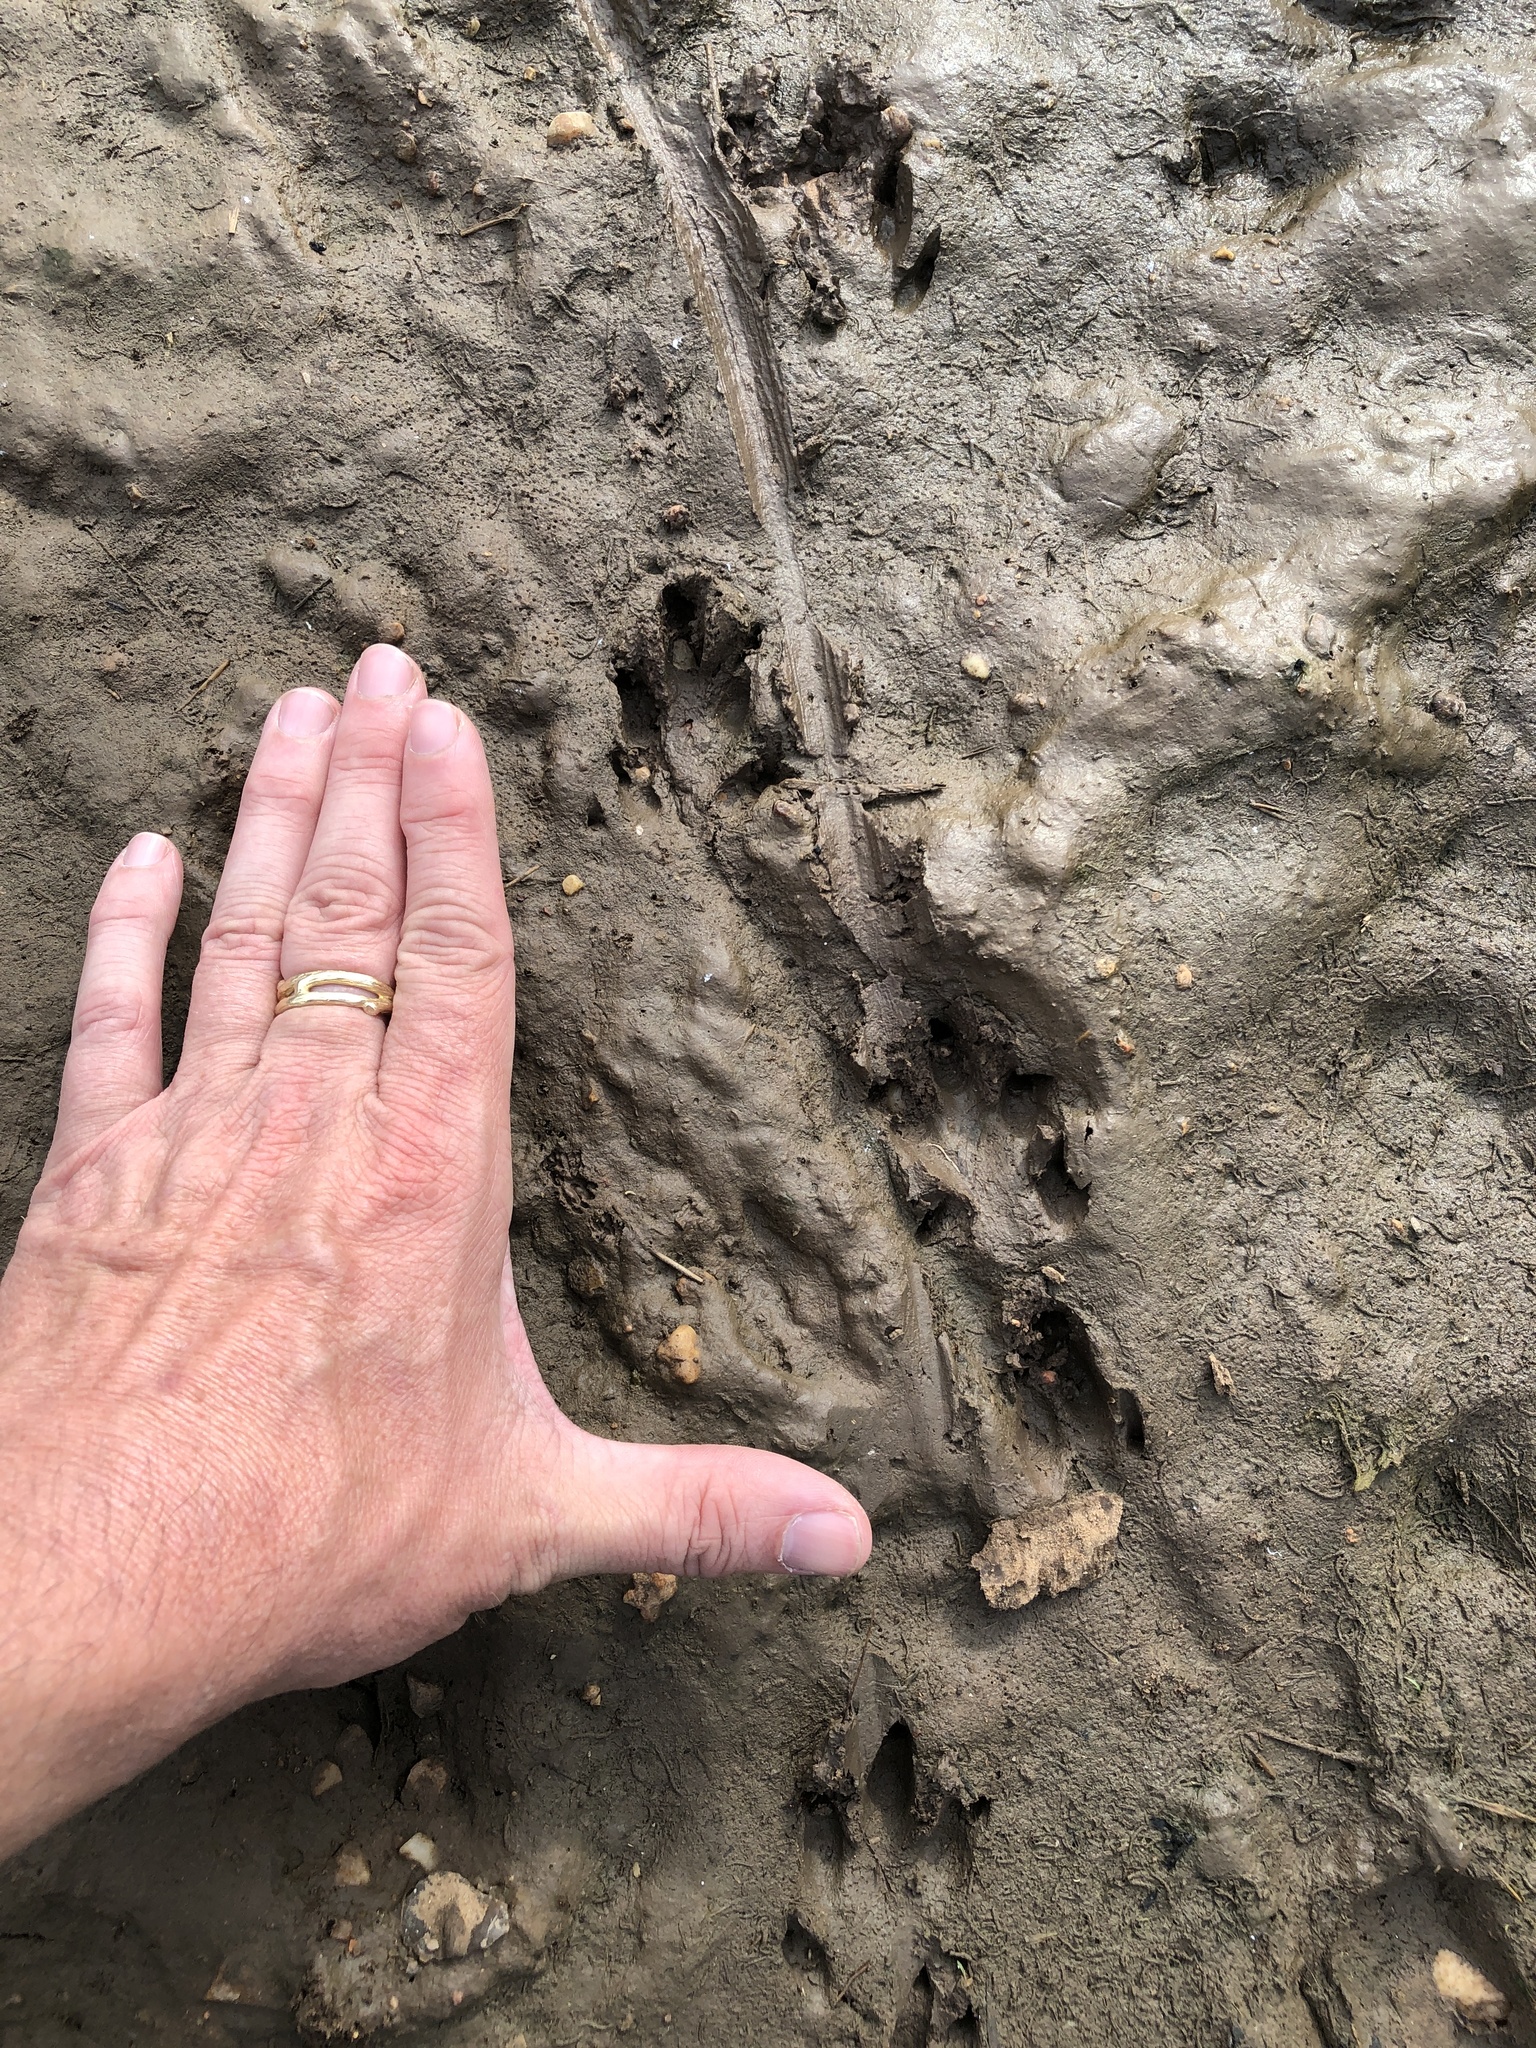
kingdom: Animalia
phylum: Chordata
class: Mammalia
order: Cingulata
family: Dasypodidae
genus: Dasypus
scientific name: Dasypus novemcinctus
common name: Nine-banded armadillo
